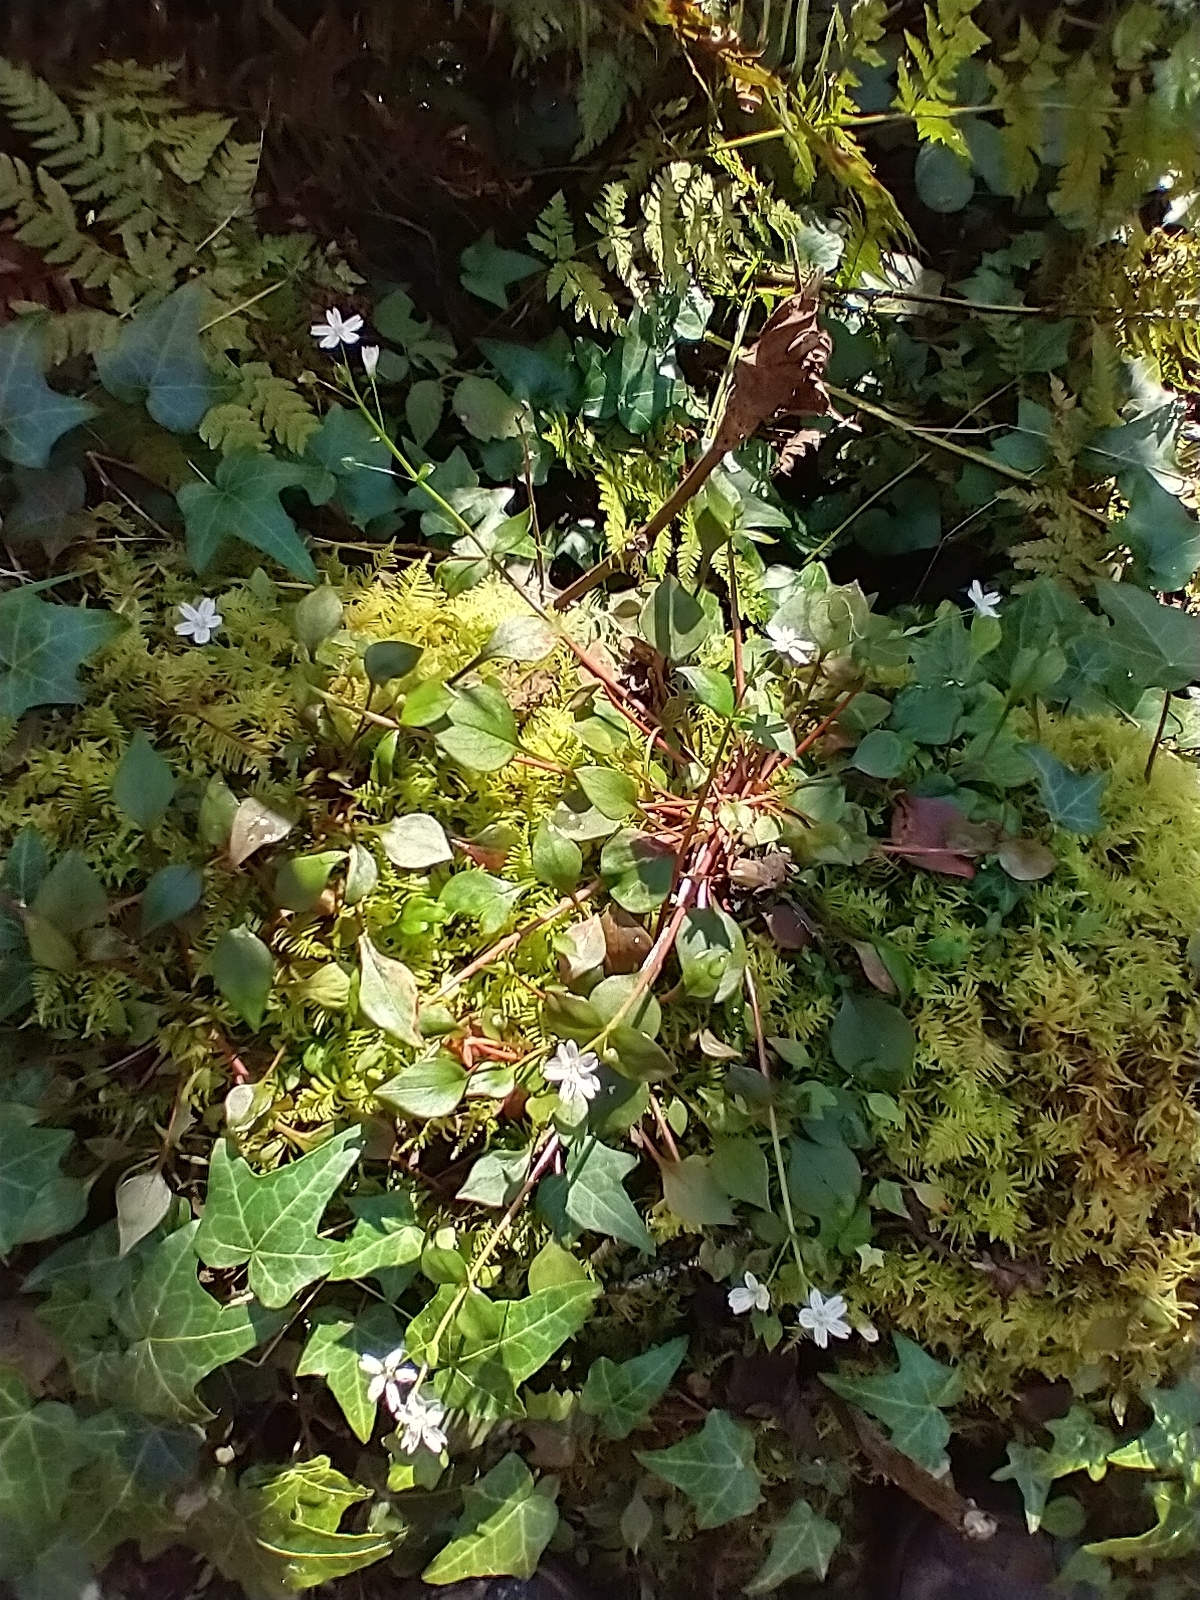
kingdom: Plantae
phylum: Tracheophyta
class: Magnoliopsida
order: Caryophyllales
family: Montiaceae
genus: Claytonia
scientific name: Claytonia sibirica
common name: Pink purslane
